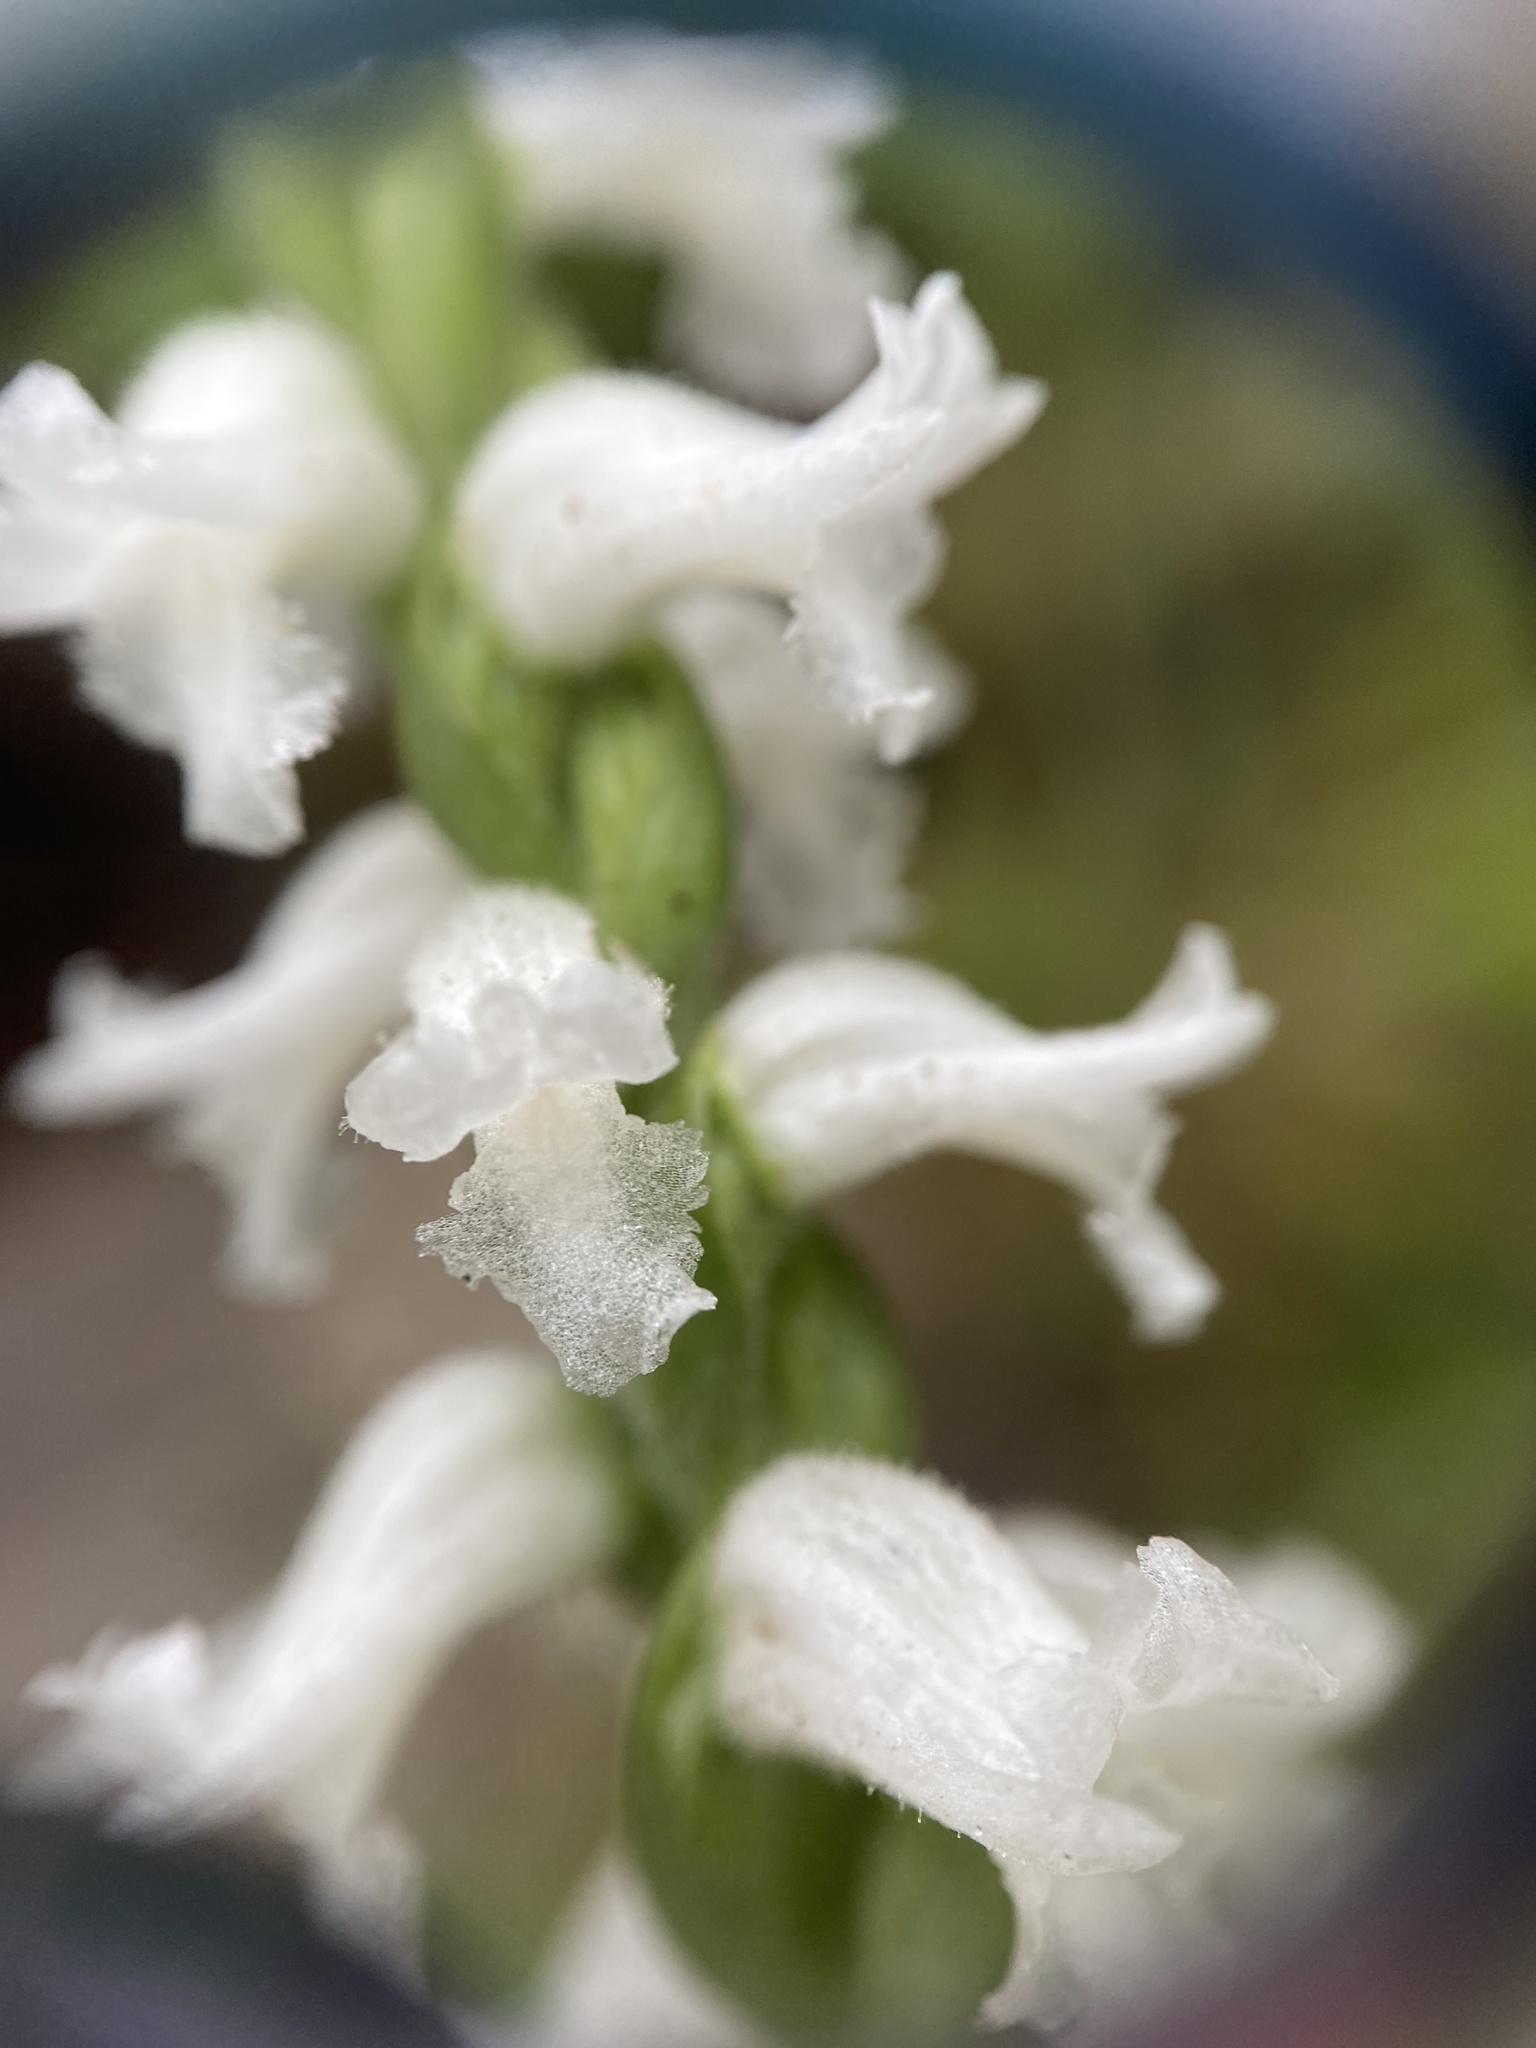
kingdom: Plantae
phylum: Tracheophyta
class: Liliopsida
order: Asparagales
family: Orchidaceae
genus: Spiranthes
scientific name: Spiranthes cernua
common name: Dropping ladies'-tresses
